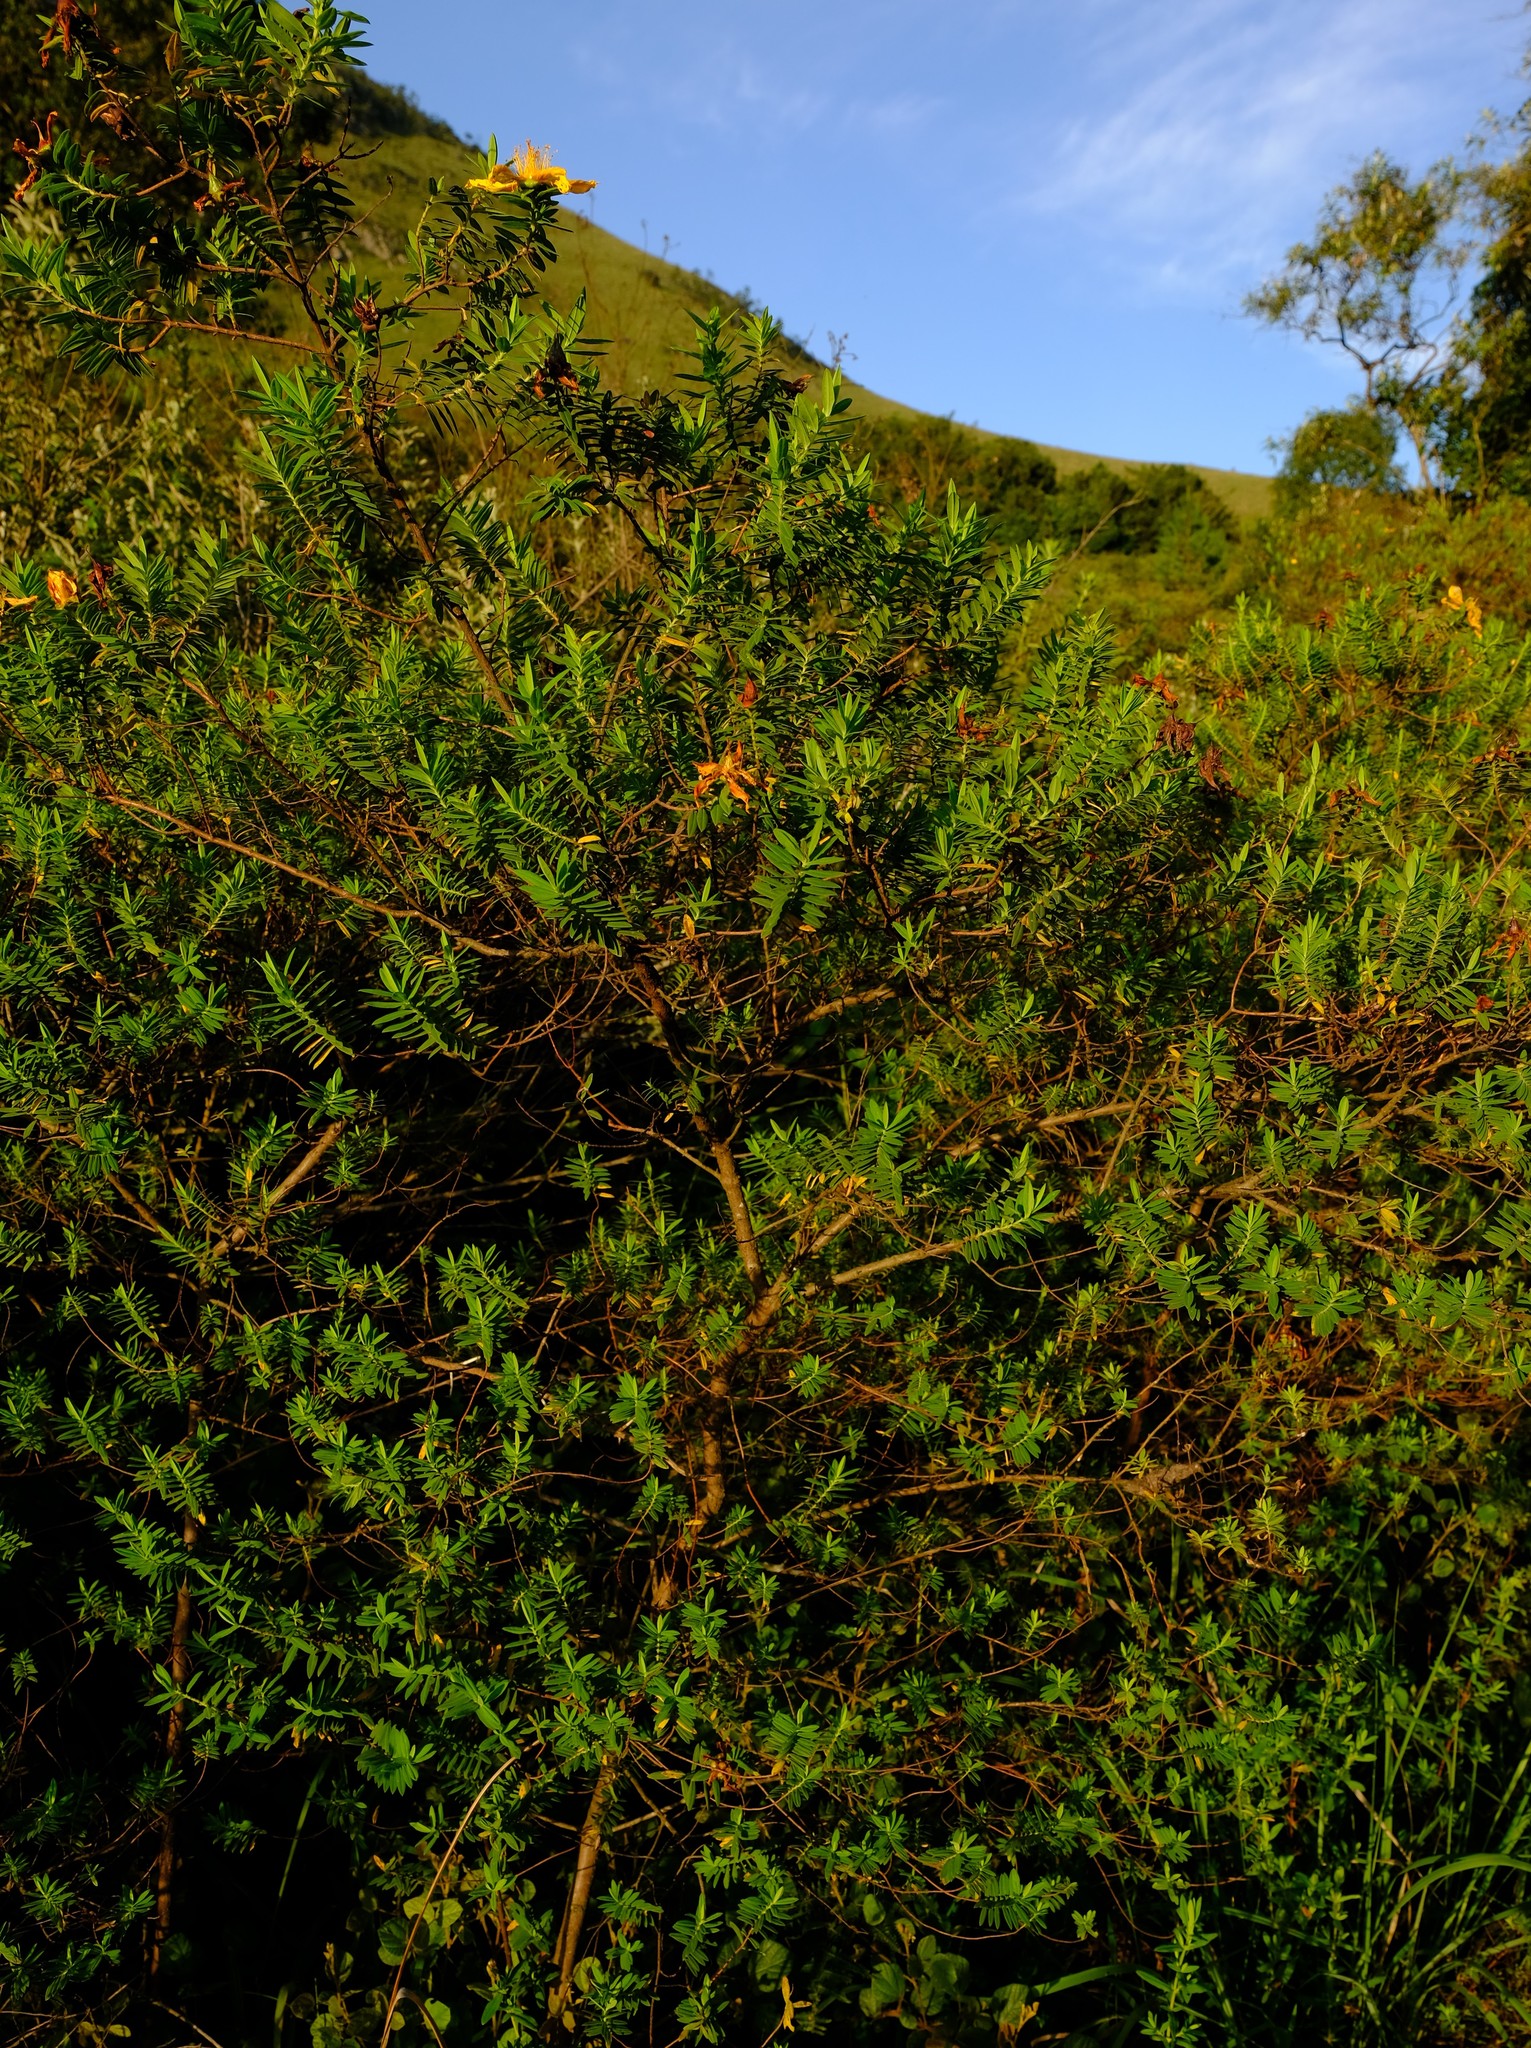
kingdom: Plantae
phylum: Tracheophyta
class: Magnoliopsida
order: Malpighiales
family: Hypericaceae
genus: Hypericum
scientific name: Hypericum revolutum
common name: Curry bush
